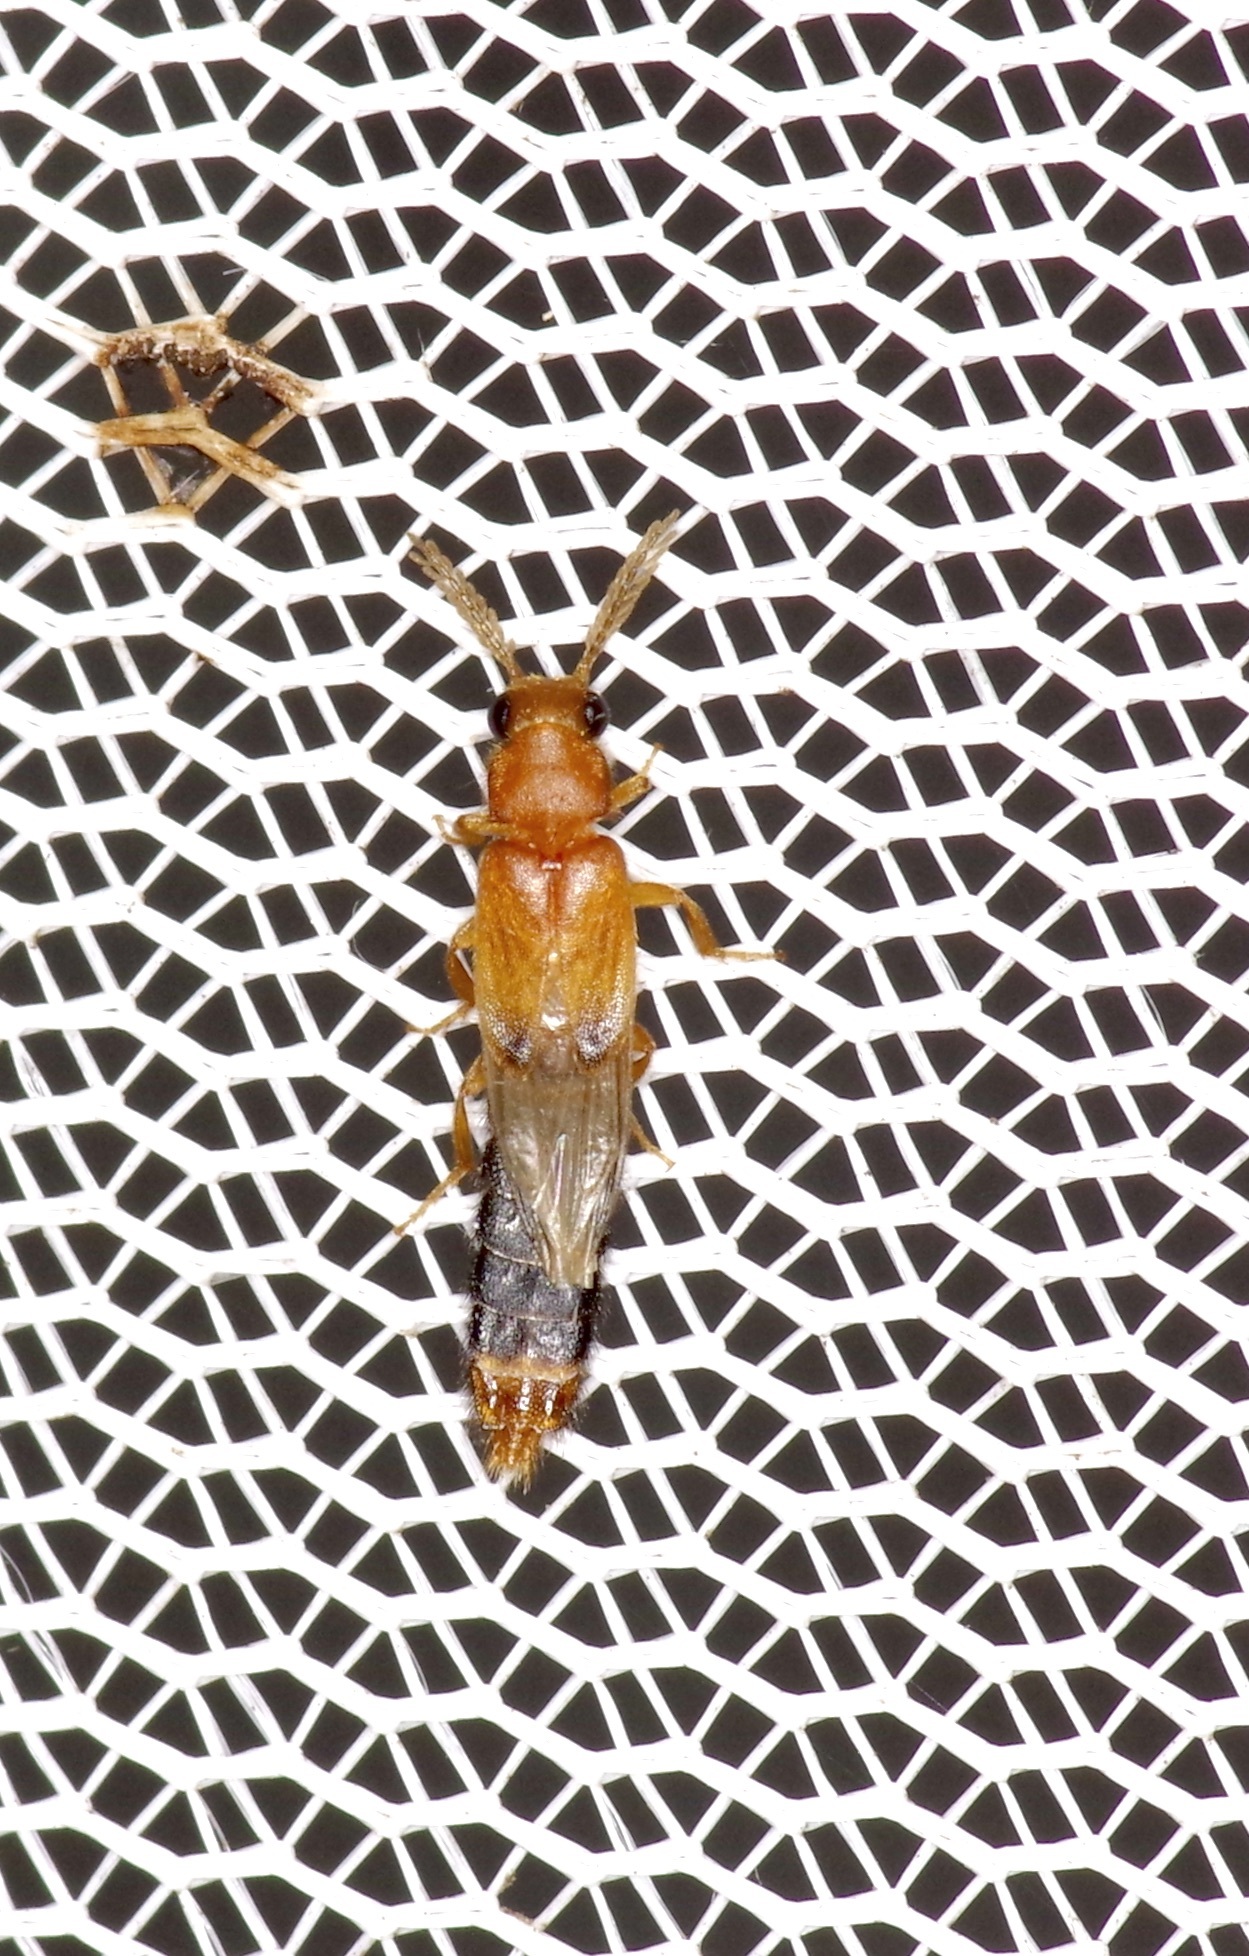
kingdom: Animalia
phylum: Arthropoda
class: Insecta
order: Coleoptera
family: Phengodidae
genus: Distremocephalus
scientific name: Distremocephalus texanus
